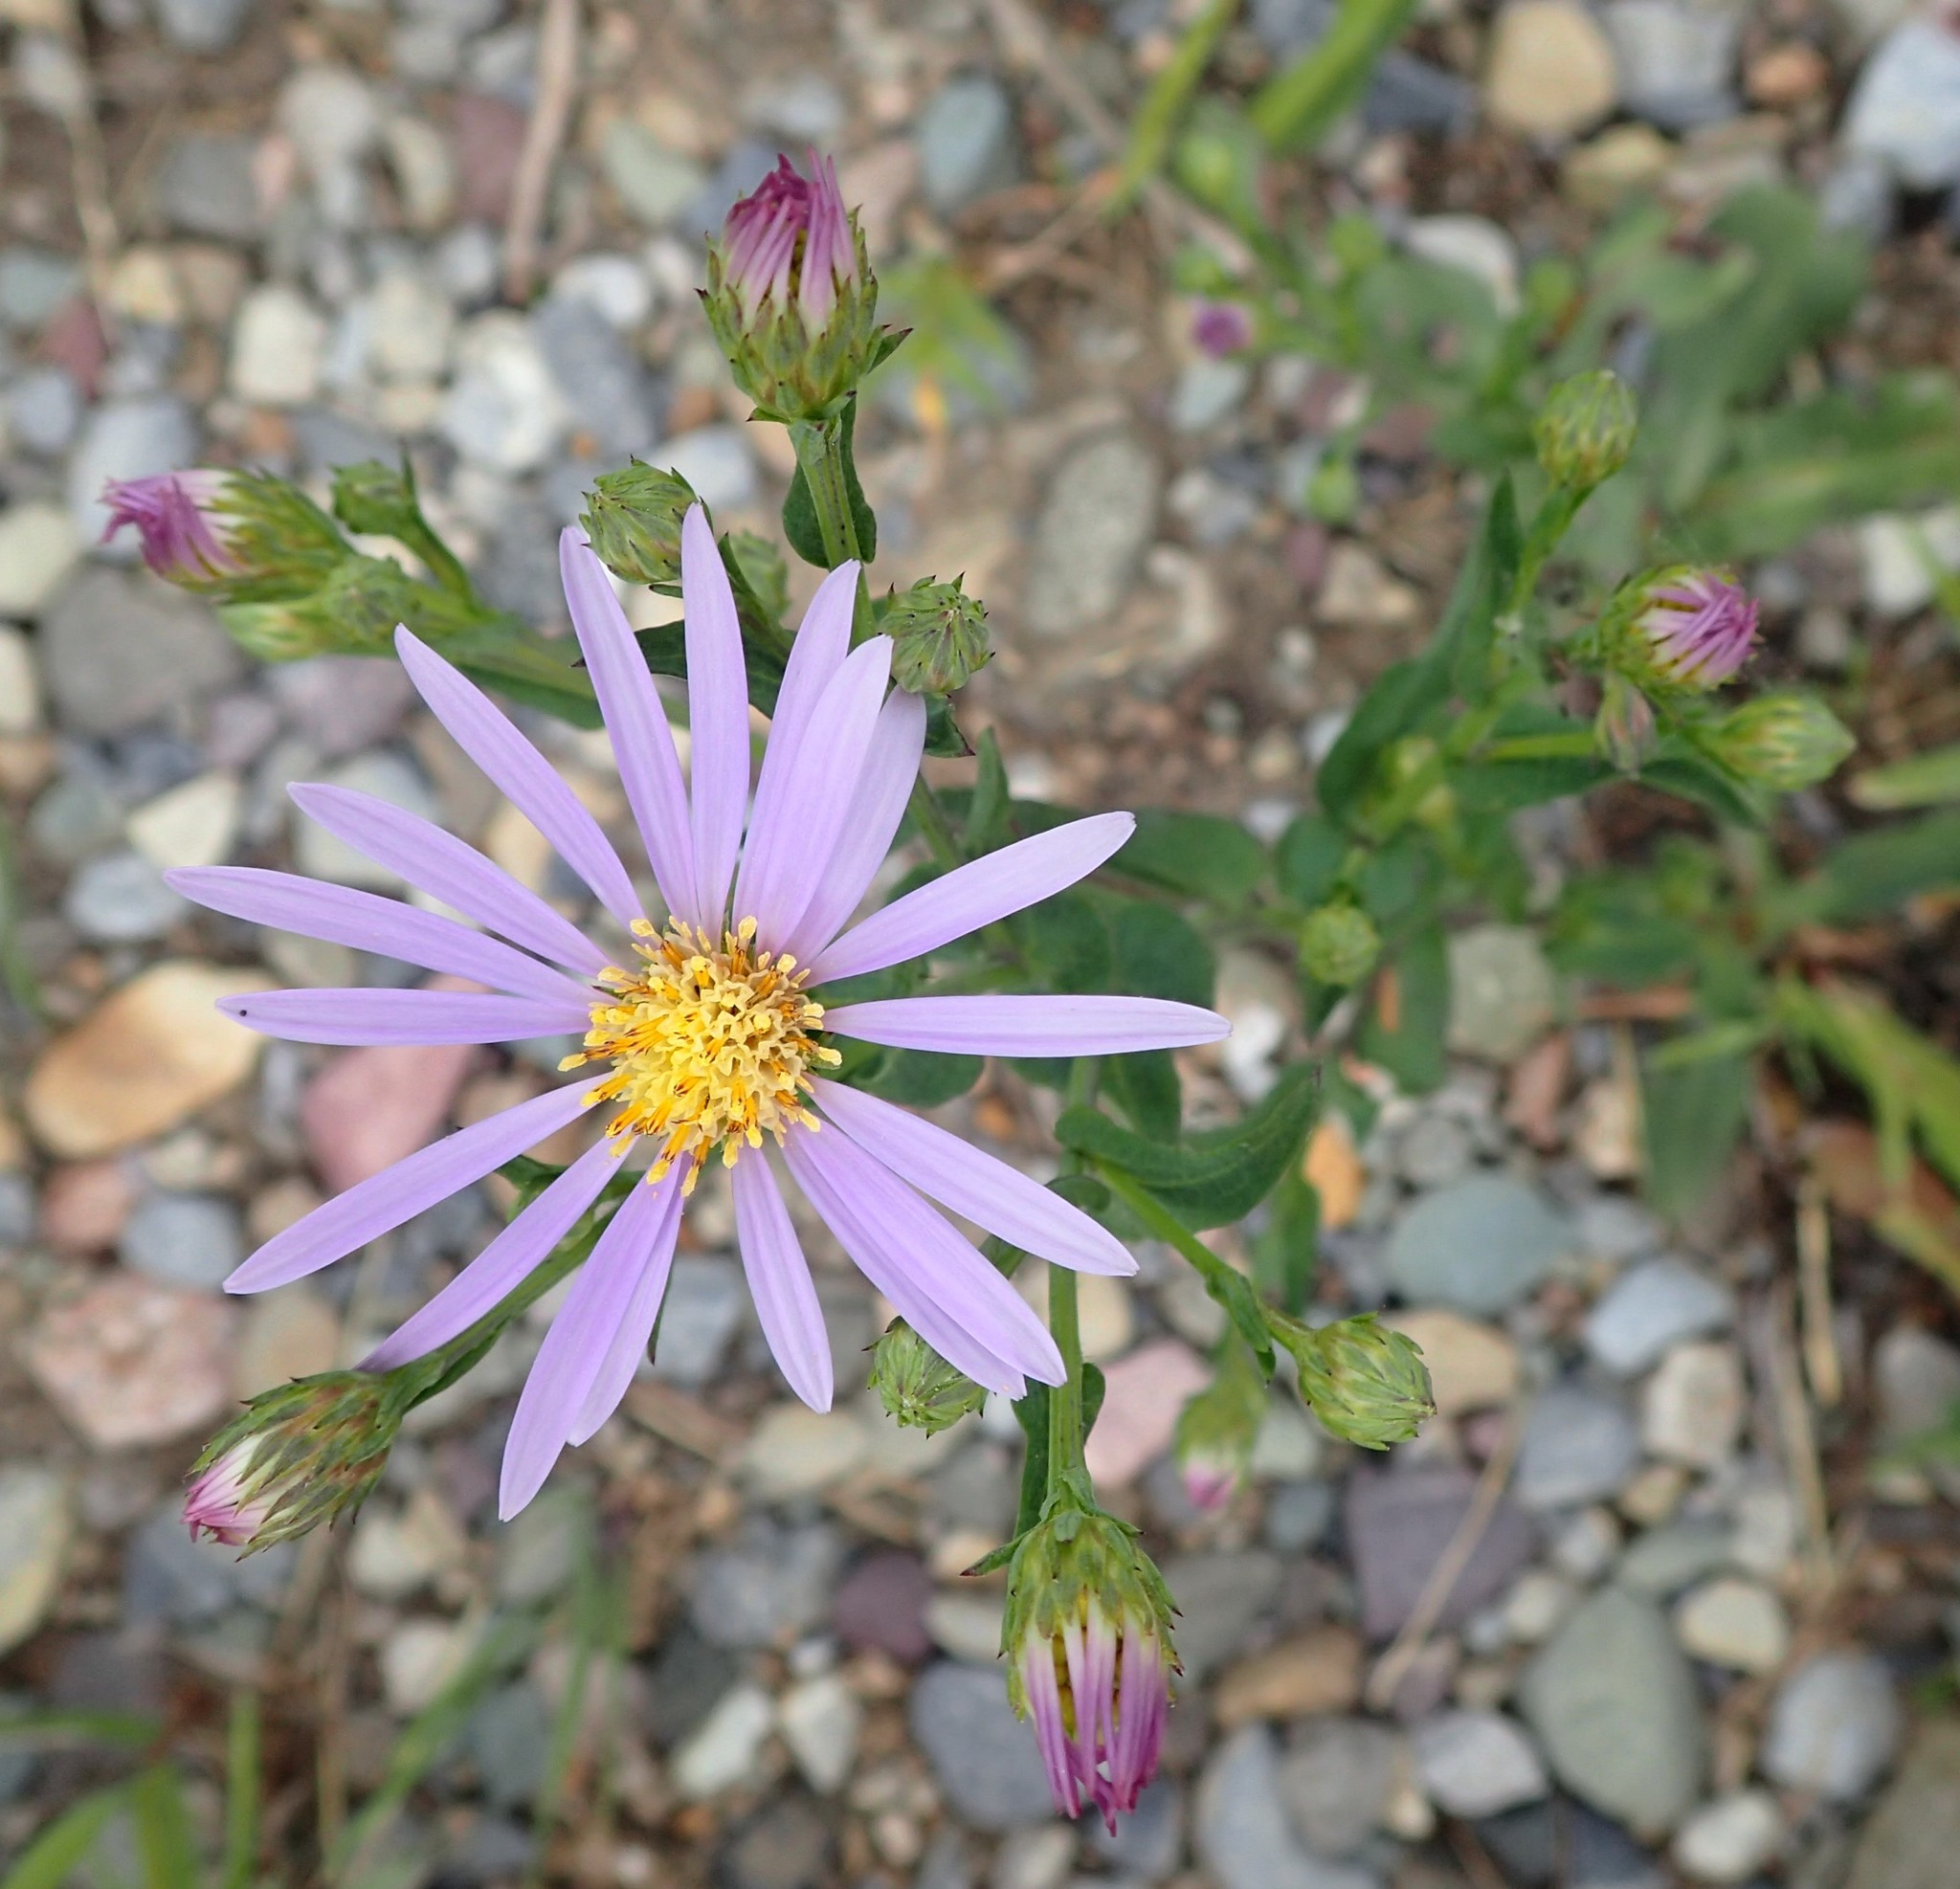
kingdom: Plantae
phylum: Tracheophyta
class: Magnoliopsida
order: Asterales
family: Asteraceae
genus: Symphyotrichum
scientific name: Symphyotrichum laeve
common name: Glaucous aster
